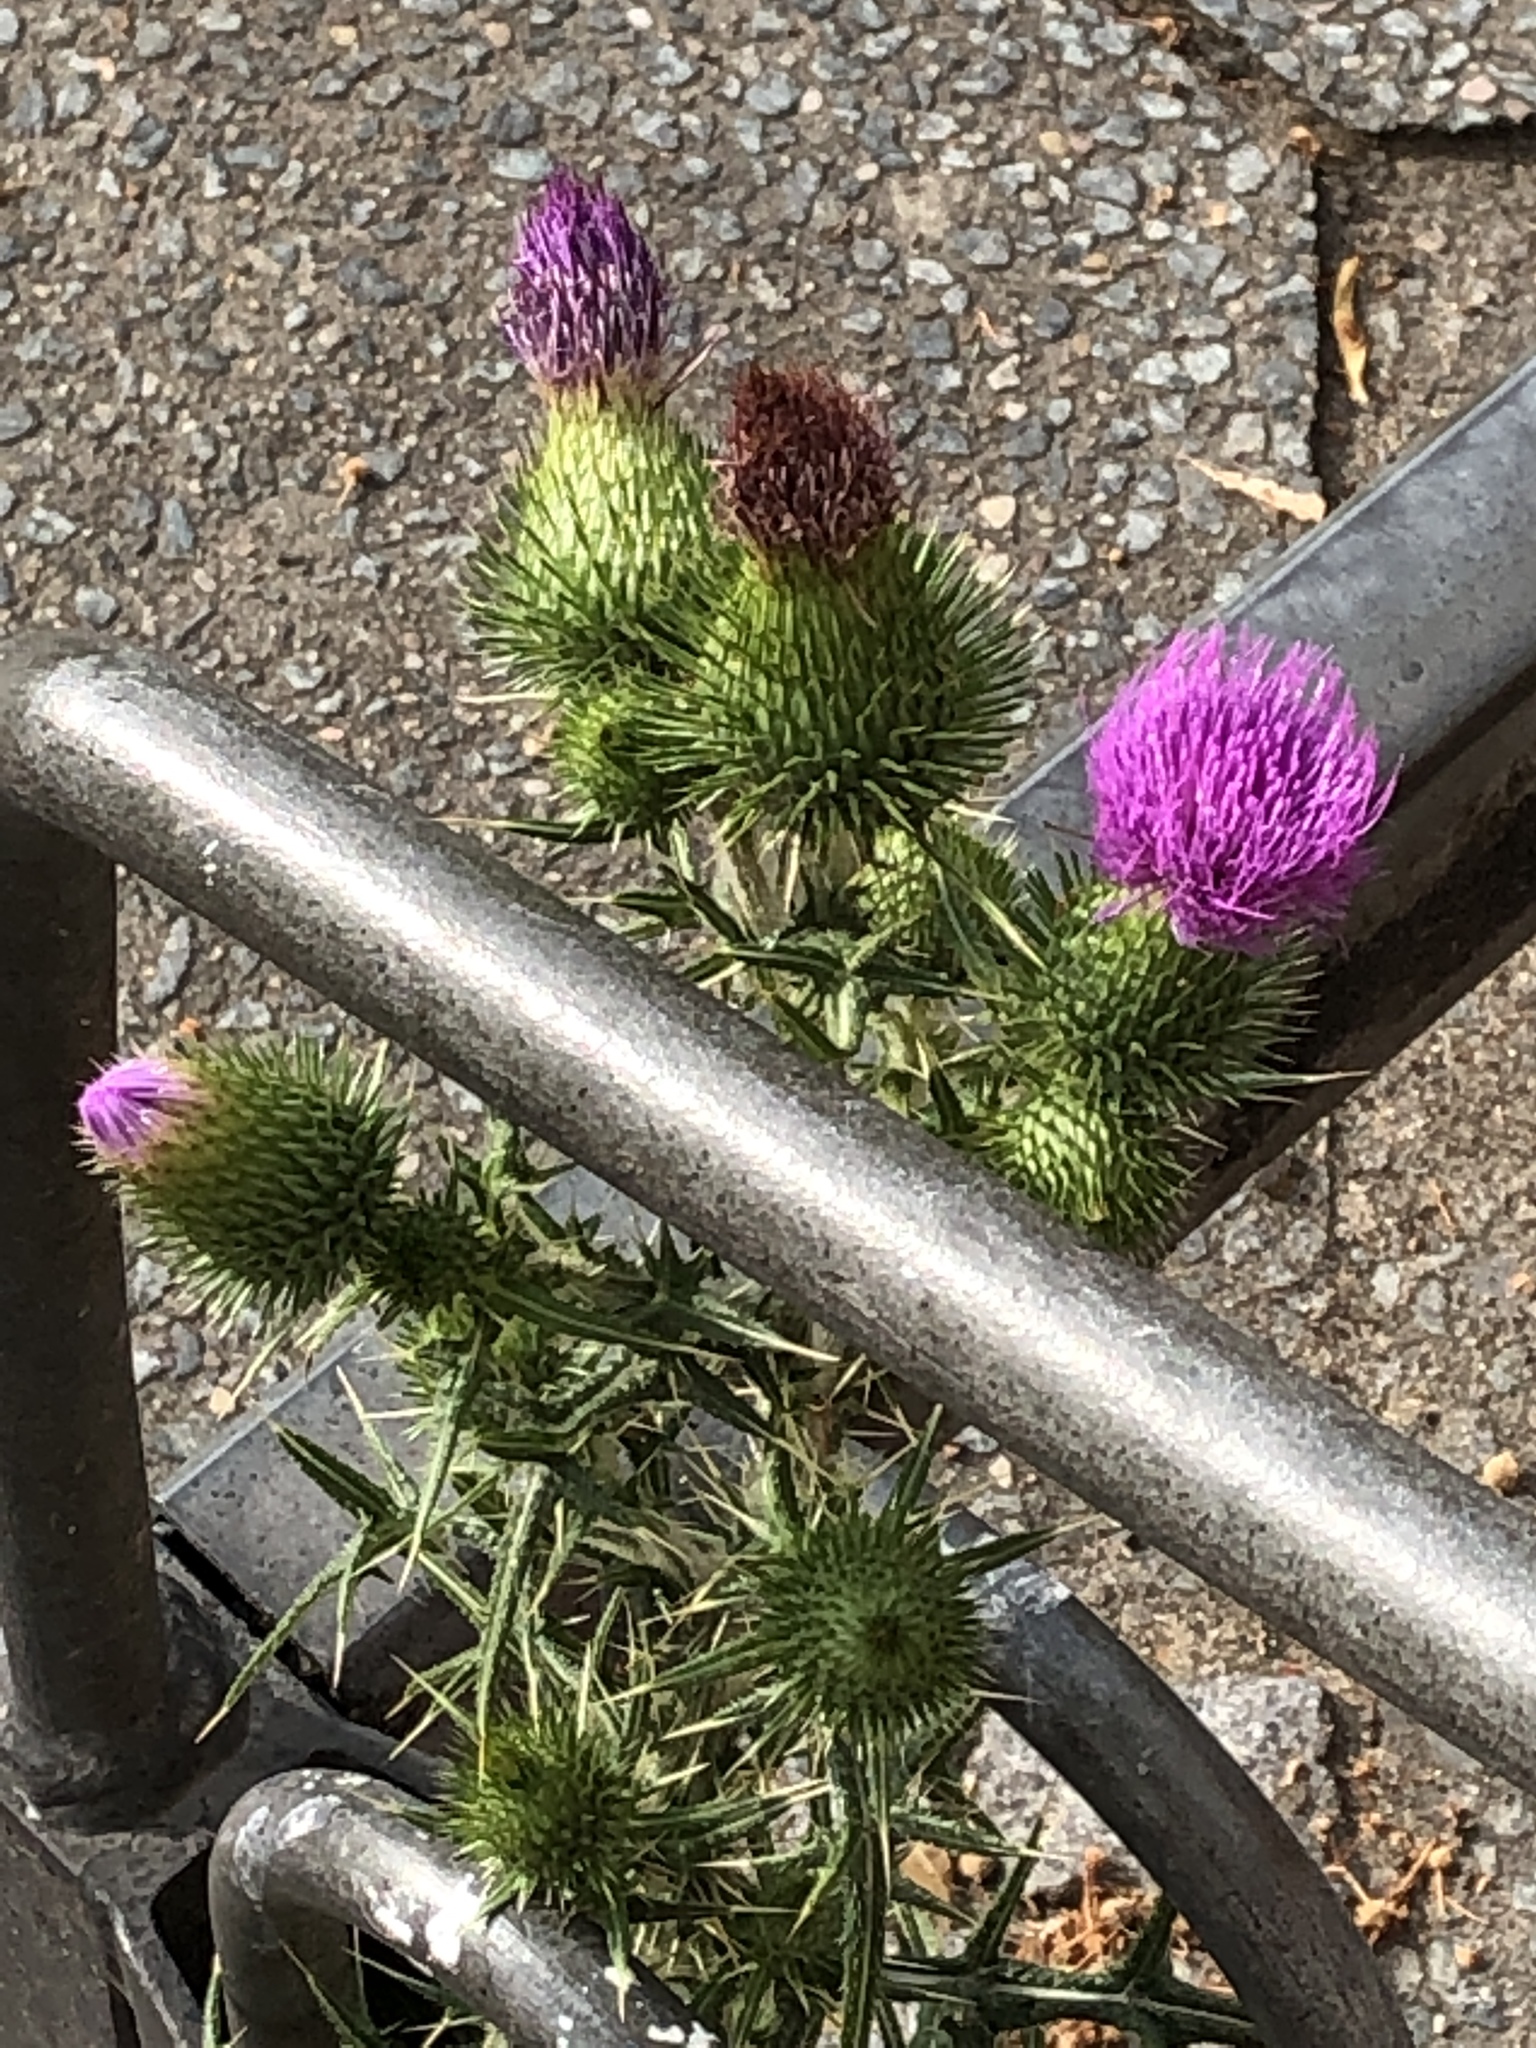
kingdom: Plantae
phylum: Tracheophyta
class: Magnoliopsida
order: Asterales
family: Asteraceae
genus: Cirsium
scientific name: Cirsium vulgare
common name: Bull thistle
